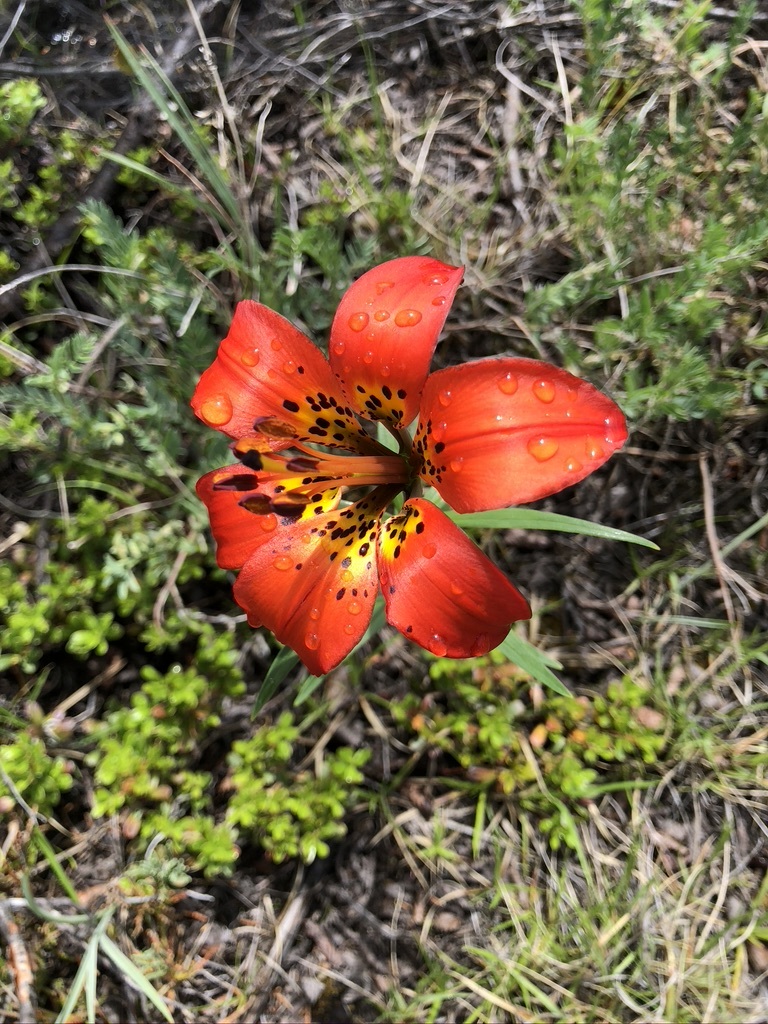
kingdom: Plantae
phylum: Tracheophyta
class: Liliopsida
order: Liliales
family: Liliaceae
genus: Lilium
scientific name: Lilium philadelphicum
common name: Red lily
